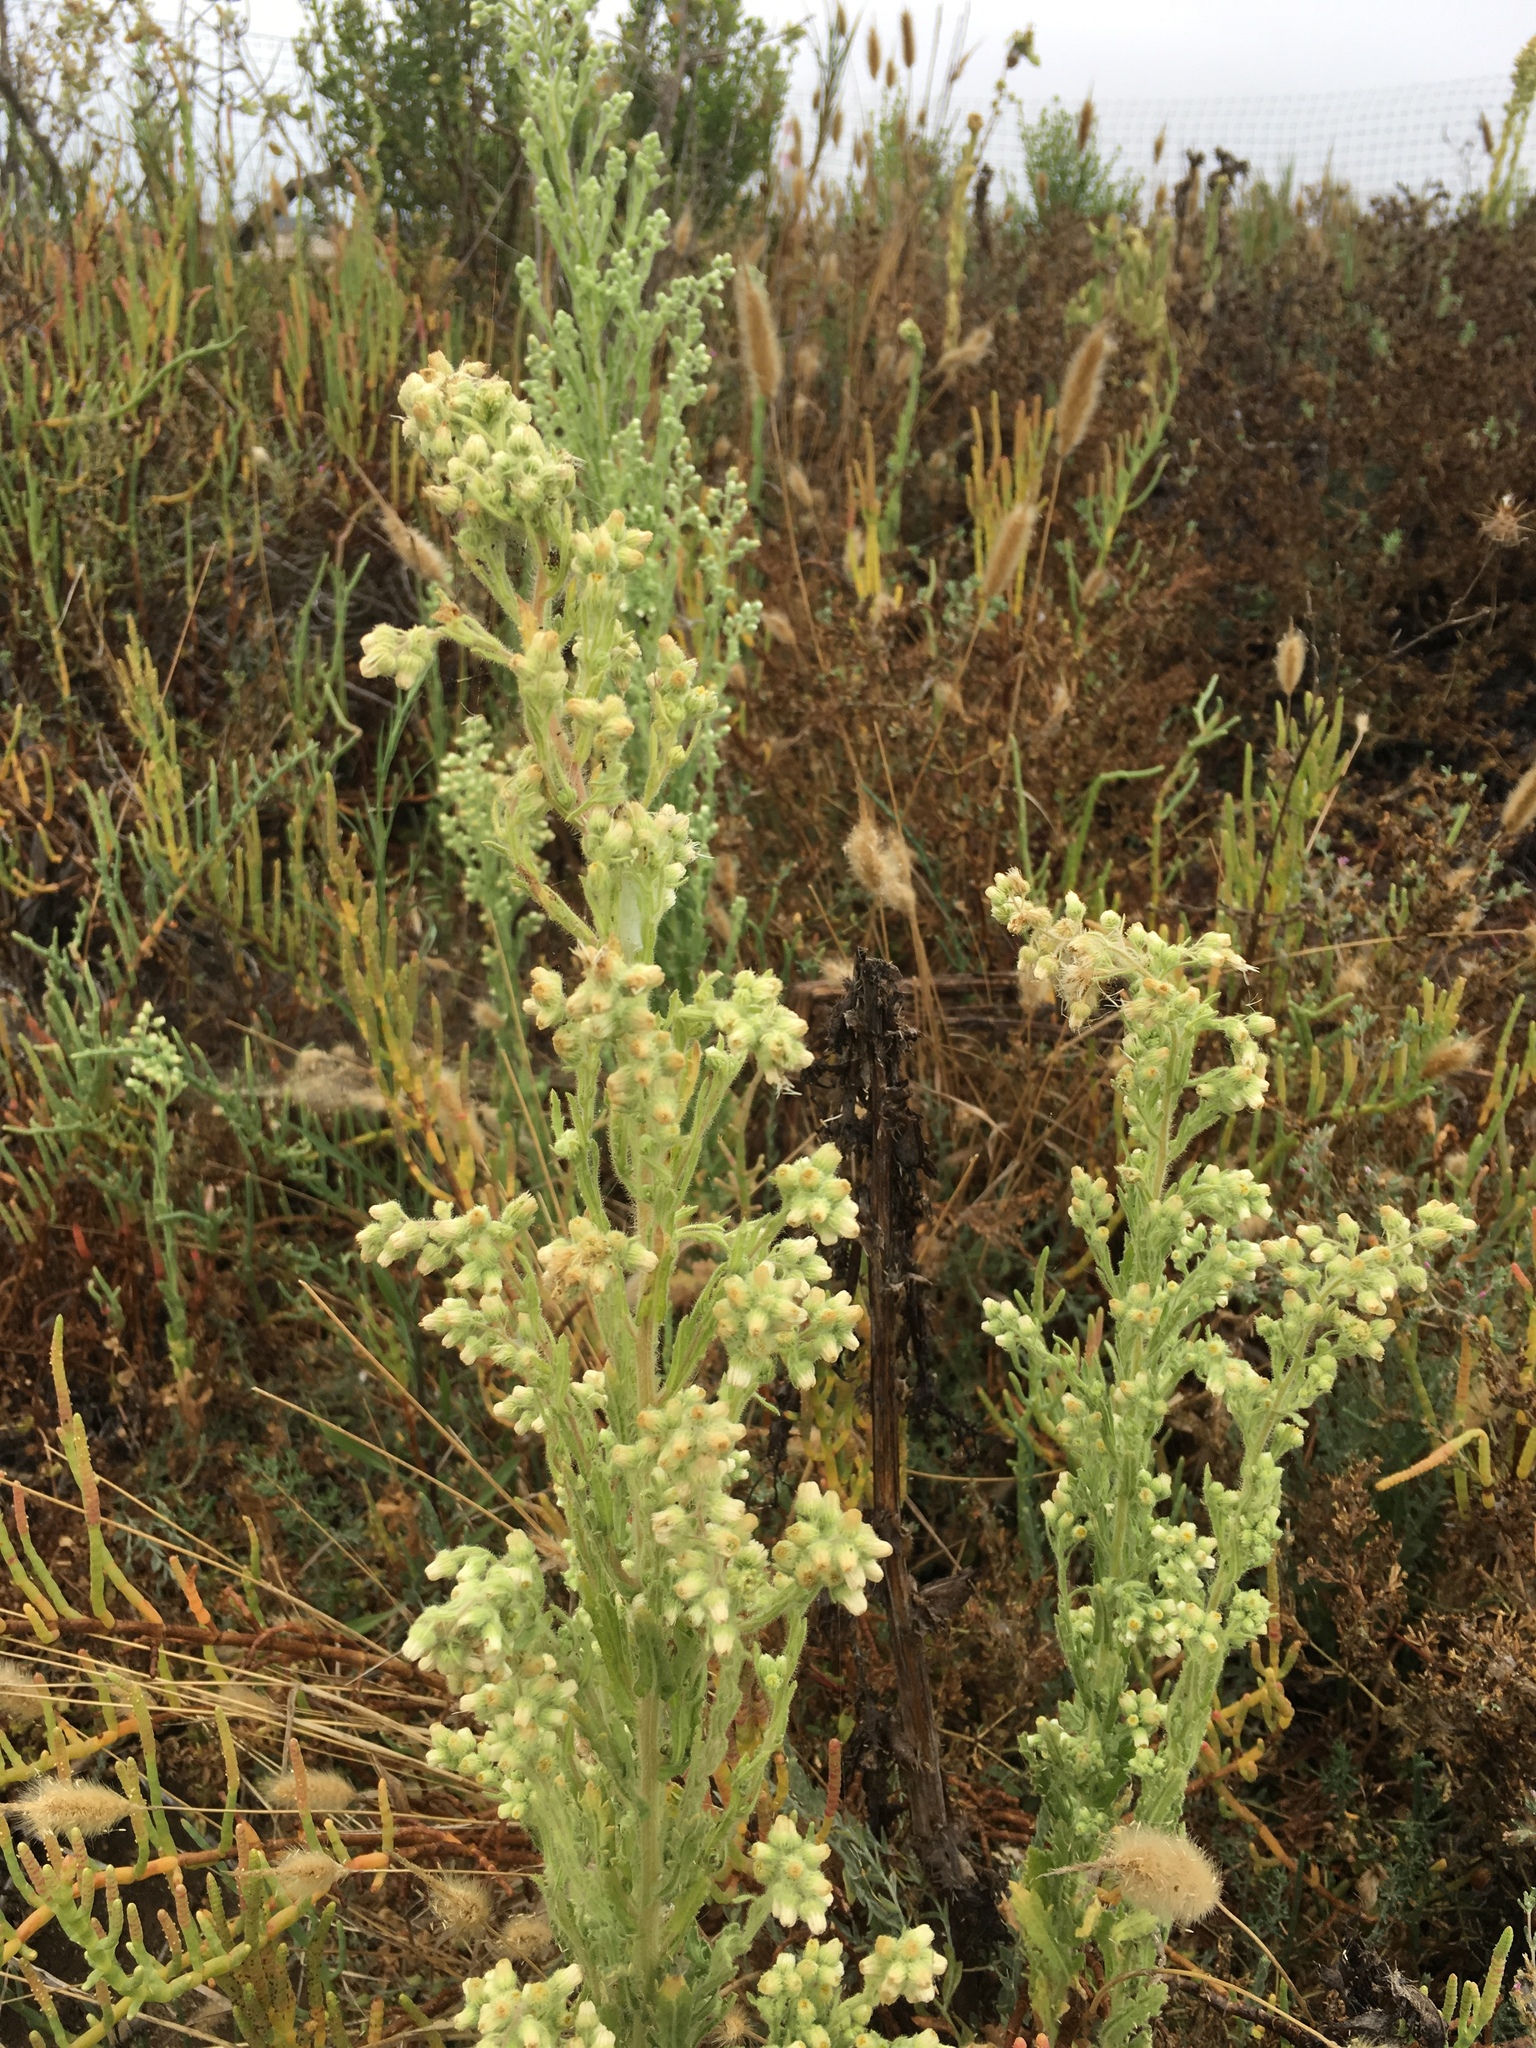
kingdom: Plantae
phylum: Tracheophyta
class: Magnoliopsida
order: Asterales
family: Asteraceae
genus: Laennecia
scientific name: Laennecia coulteri
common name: Coulter's woolwort
